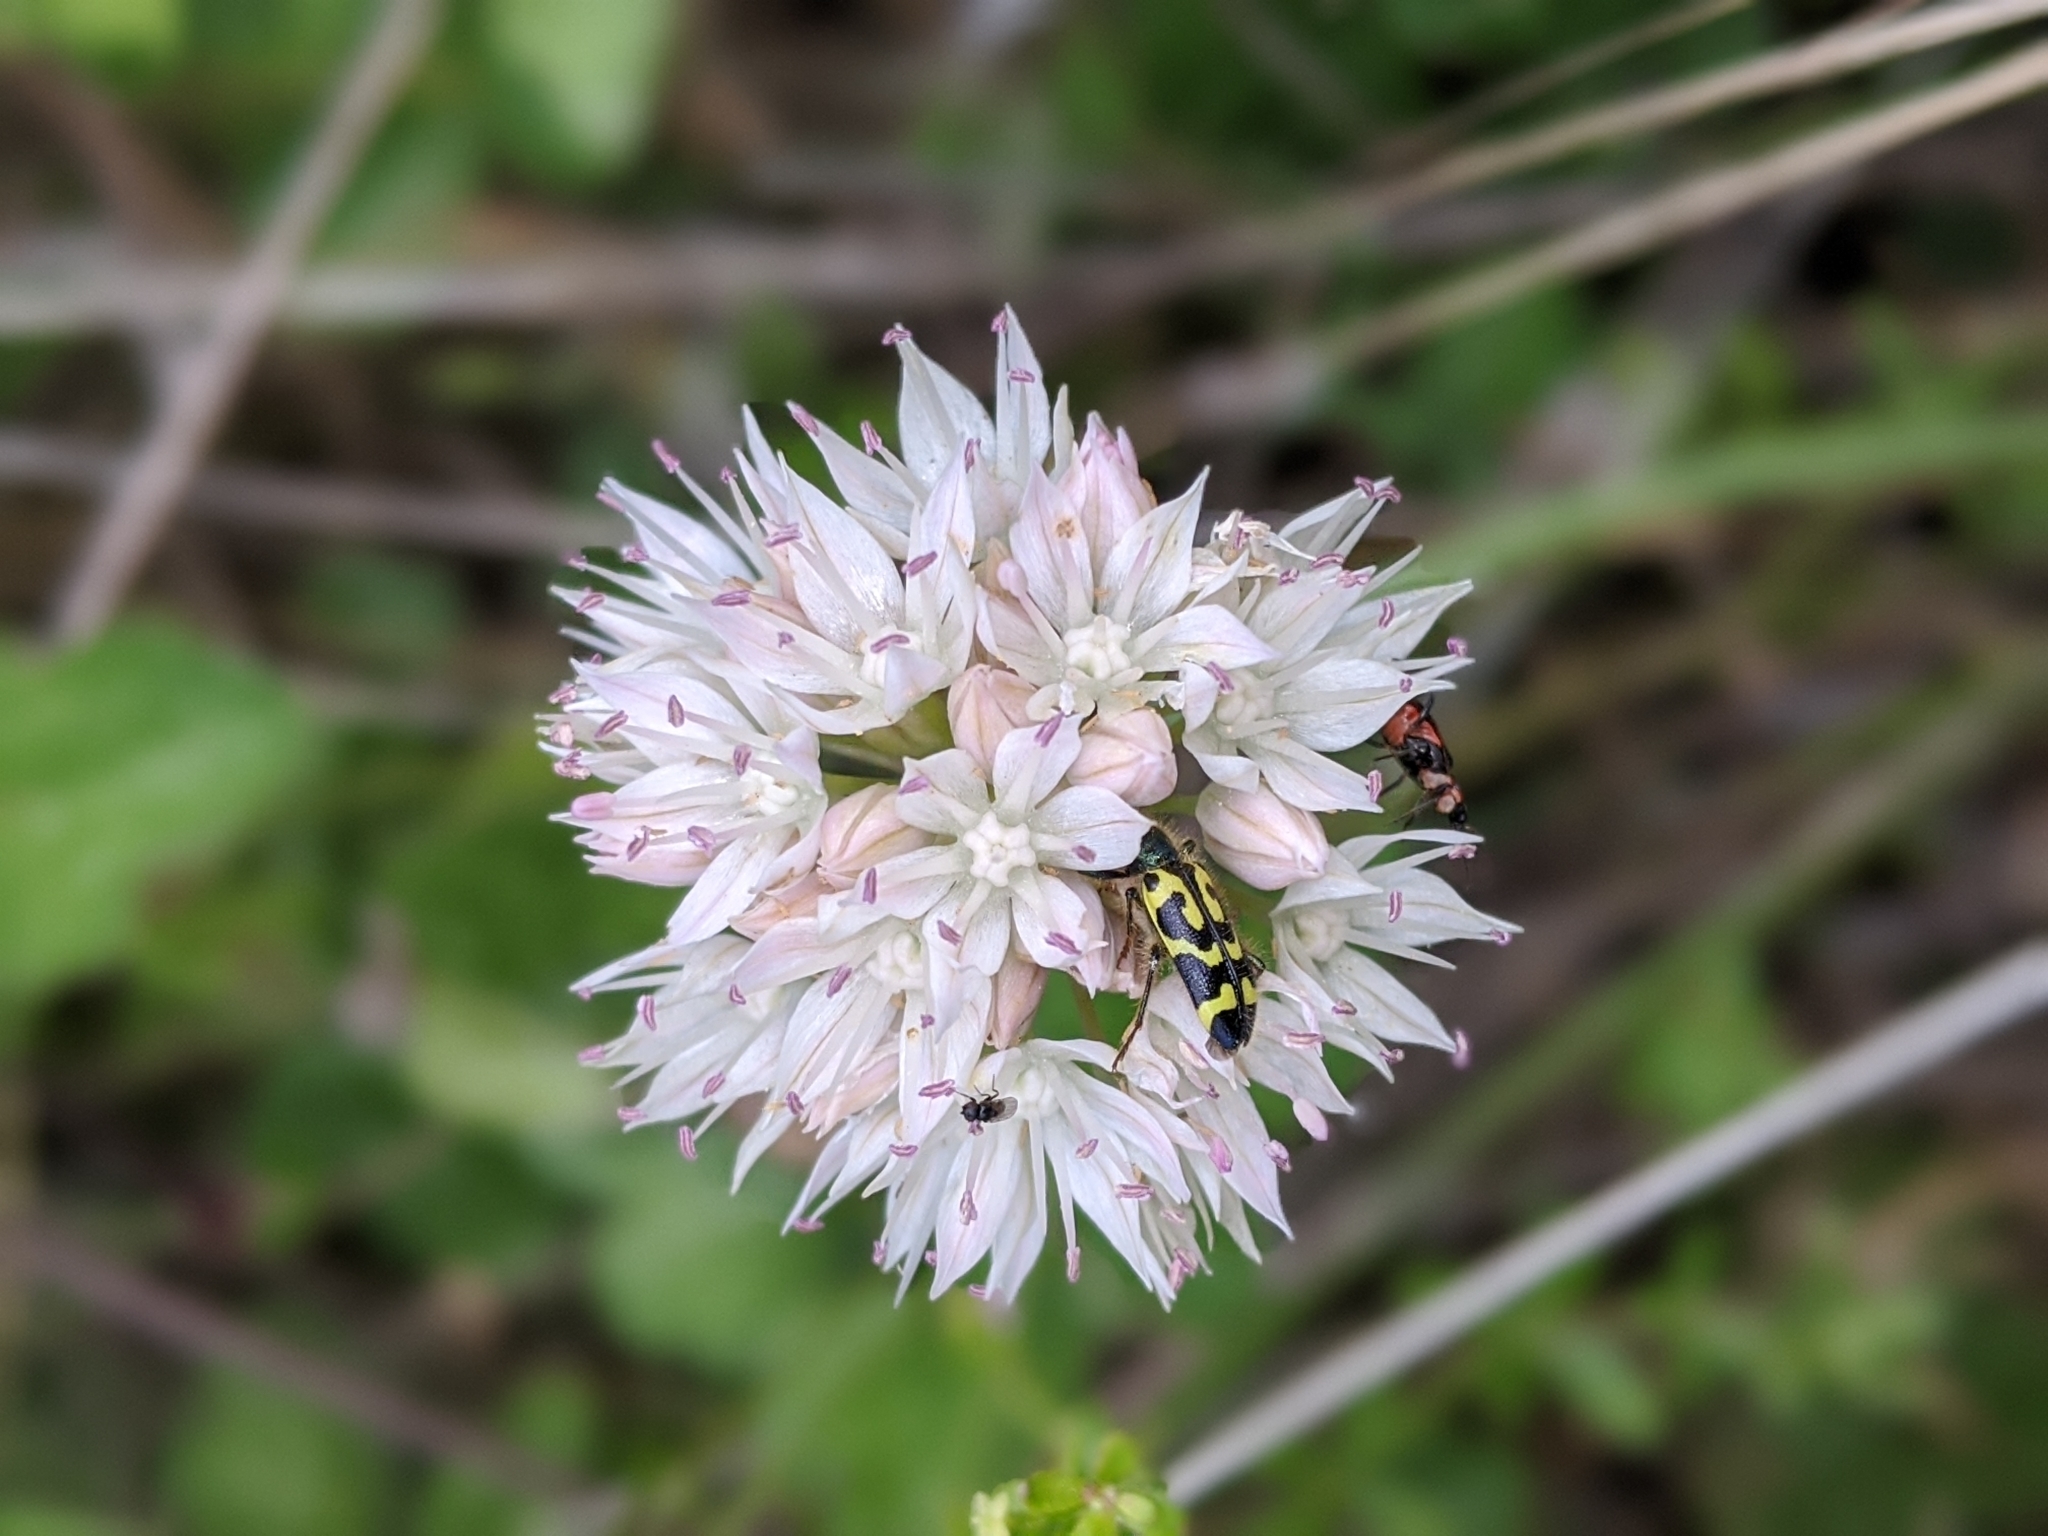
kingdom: Plantae
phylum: Tracheophyta
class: Liliopsida
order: Asparagales
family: Amaryllidaceae
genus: Allium
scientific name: Allium amplectens
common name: Narrow-leaved onion
